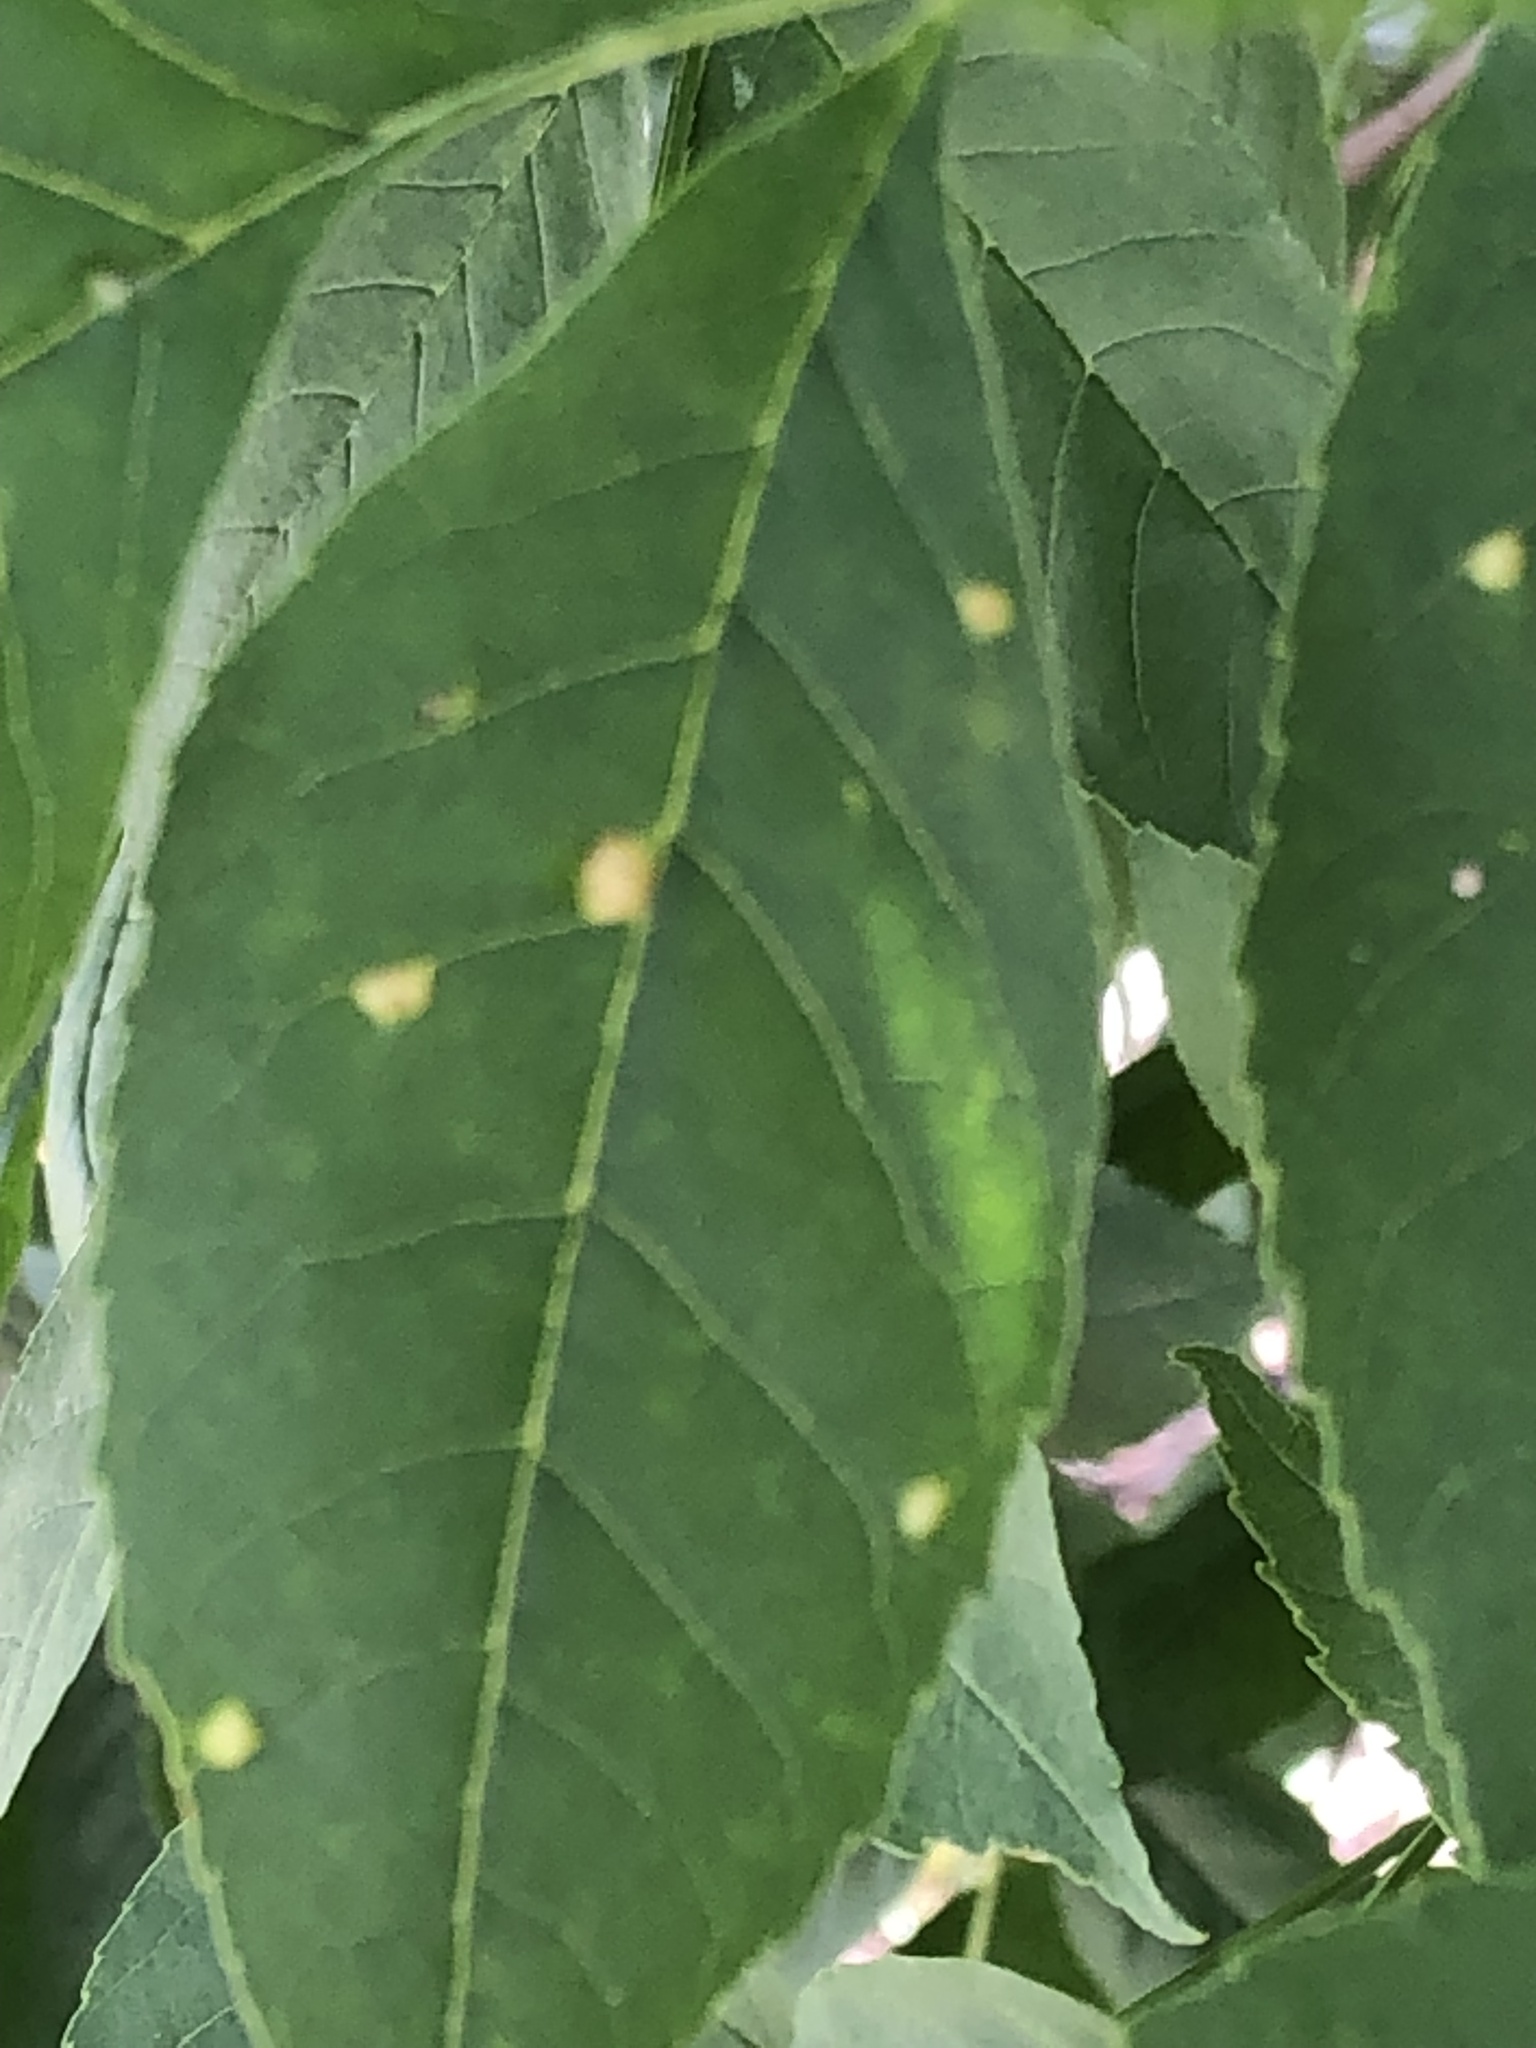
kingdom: Animalia
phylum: Arthropoda
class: Arachnida
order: Trombidiformes
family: Eriophyidae
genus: Aceria
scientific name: Aceria fraxinicola
